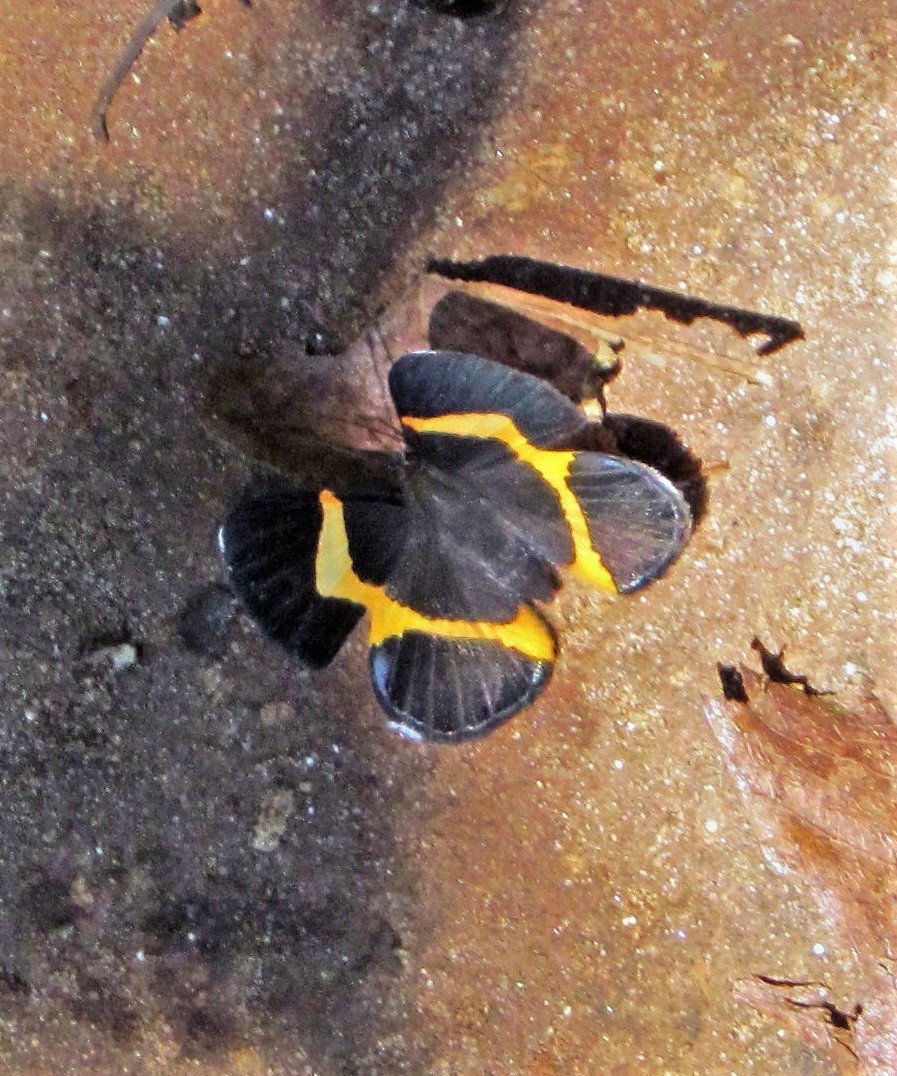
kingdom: Animalia
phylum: Arthropoda
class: Insecta
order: Lepidoptera
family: Riodinidae
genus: Notheme
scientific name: Notheme eumeus
